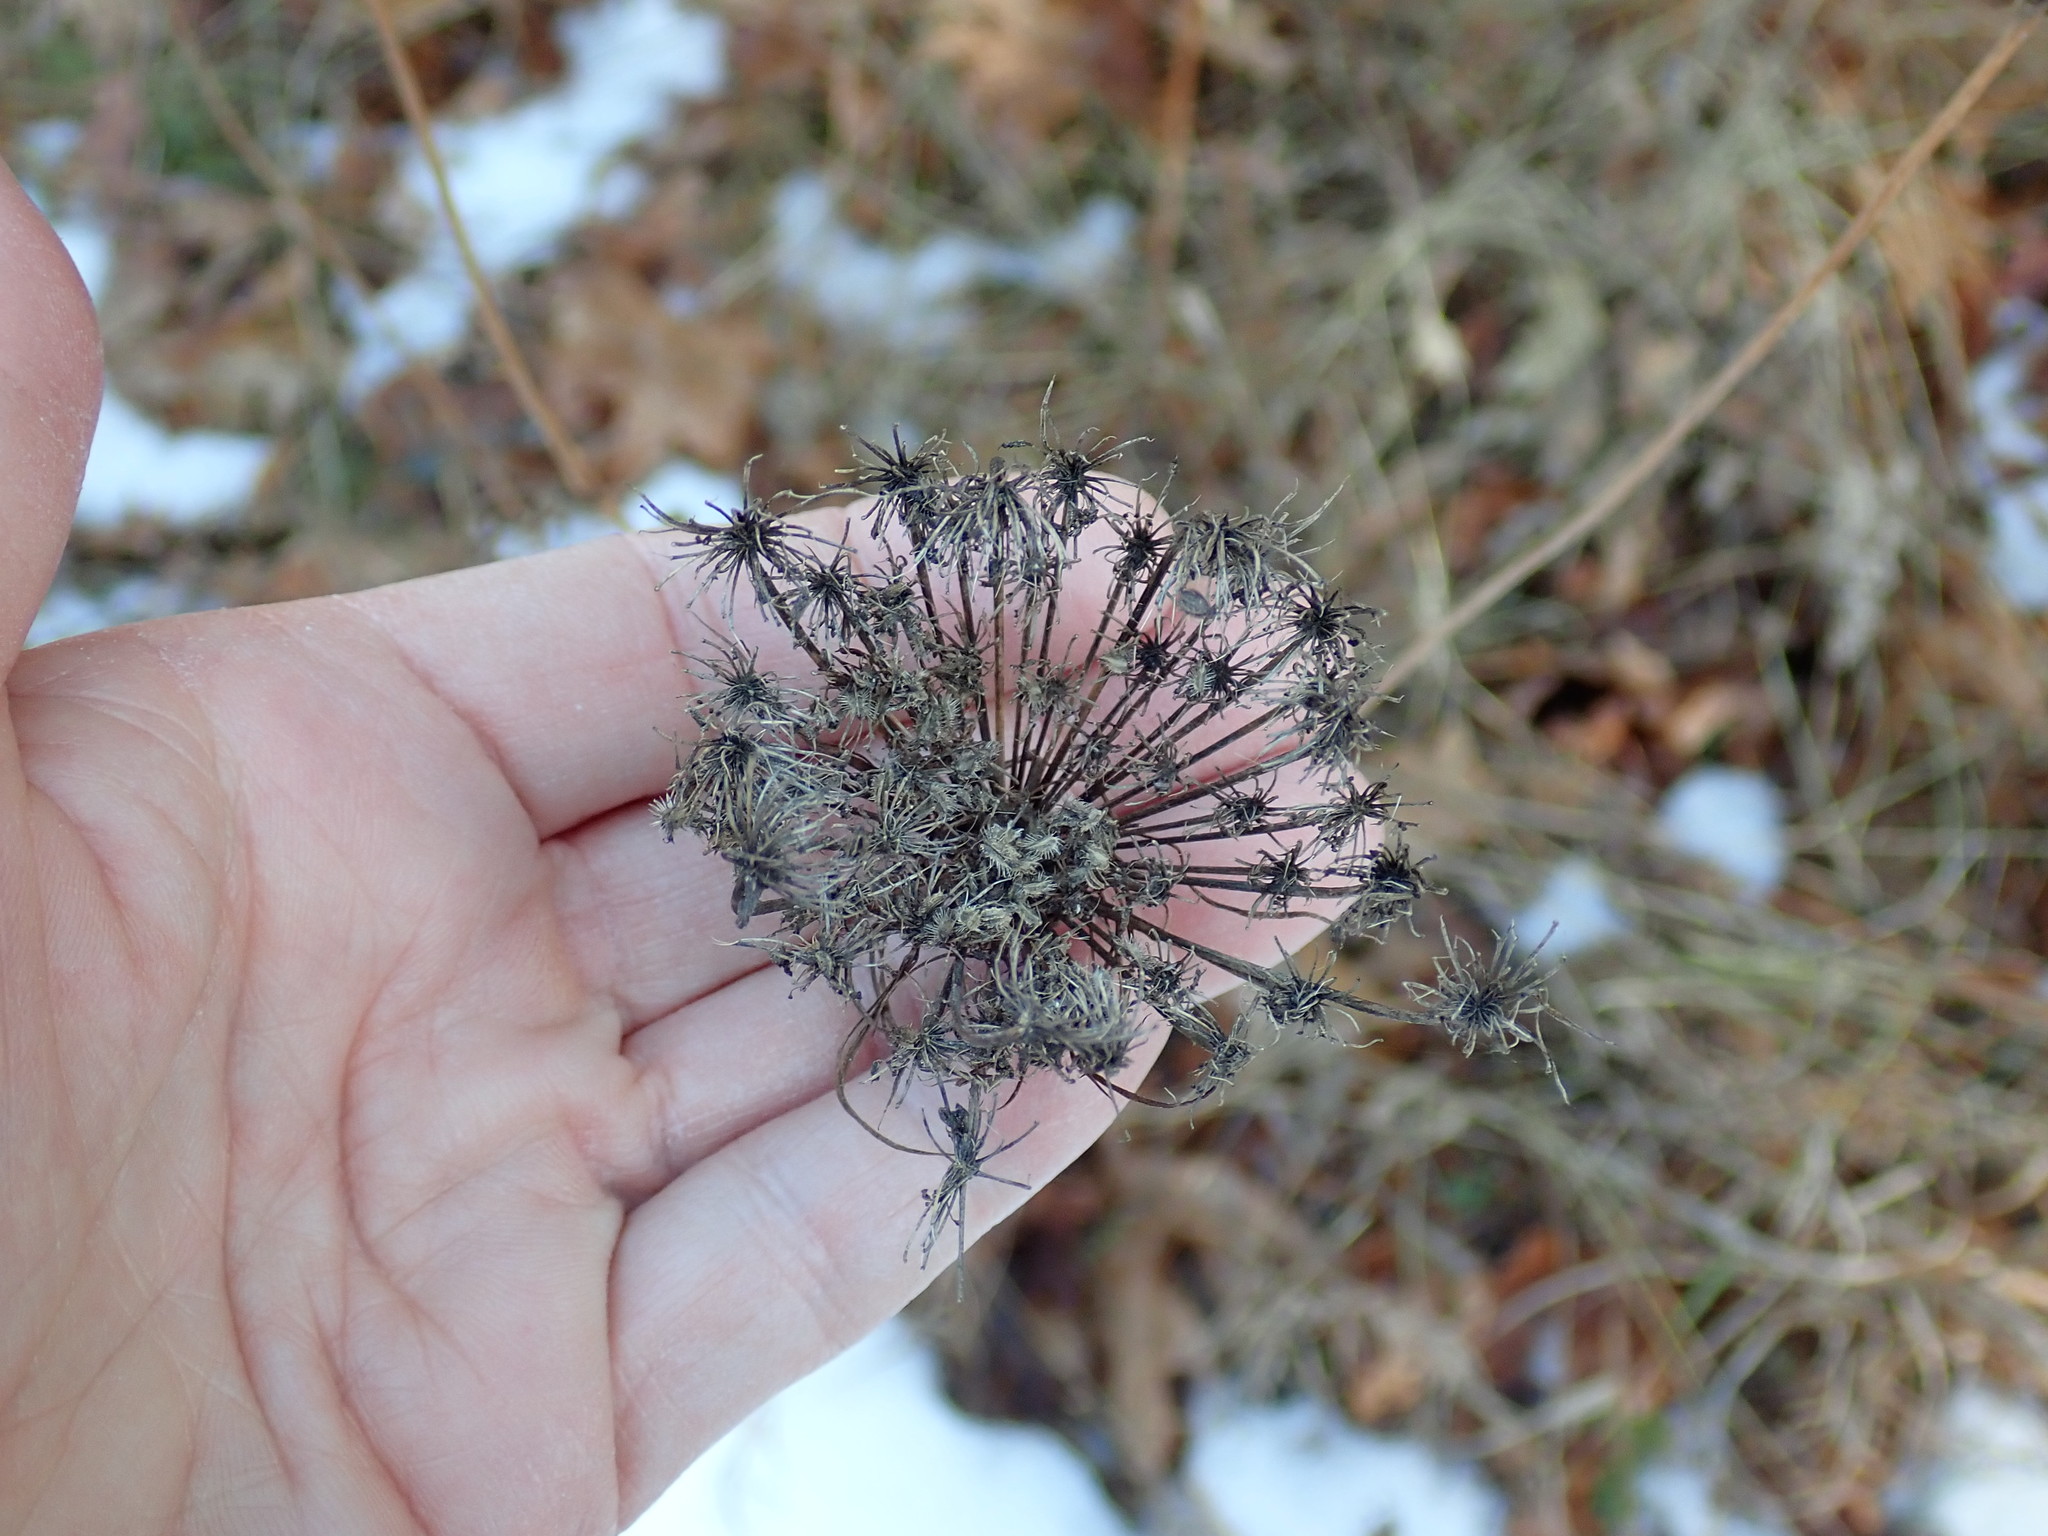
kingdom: Plantae
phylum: Tracheophyta
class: Magnoliopsida
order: Apiales
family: Apiaceae
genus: Daucus
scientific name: Daucus carota
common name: Wild carrot
